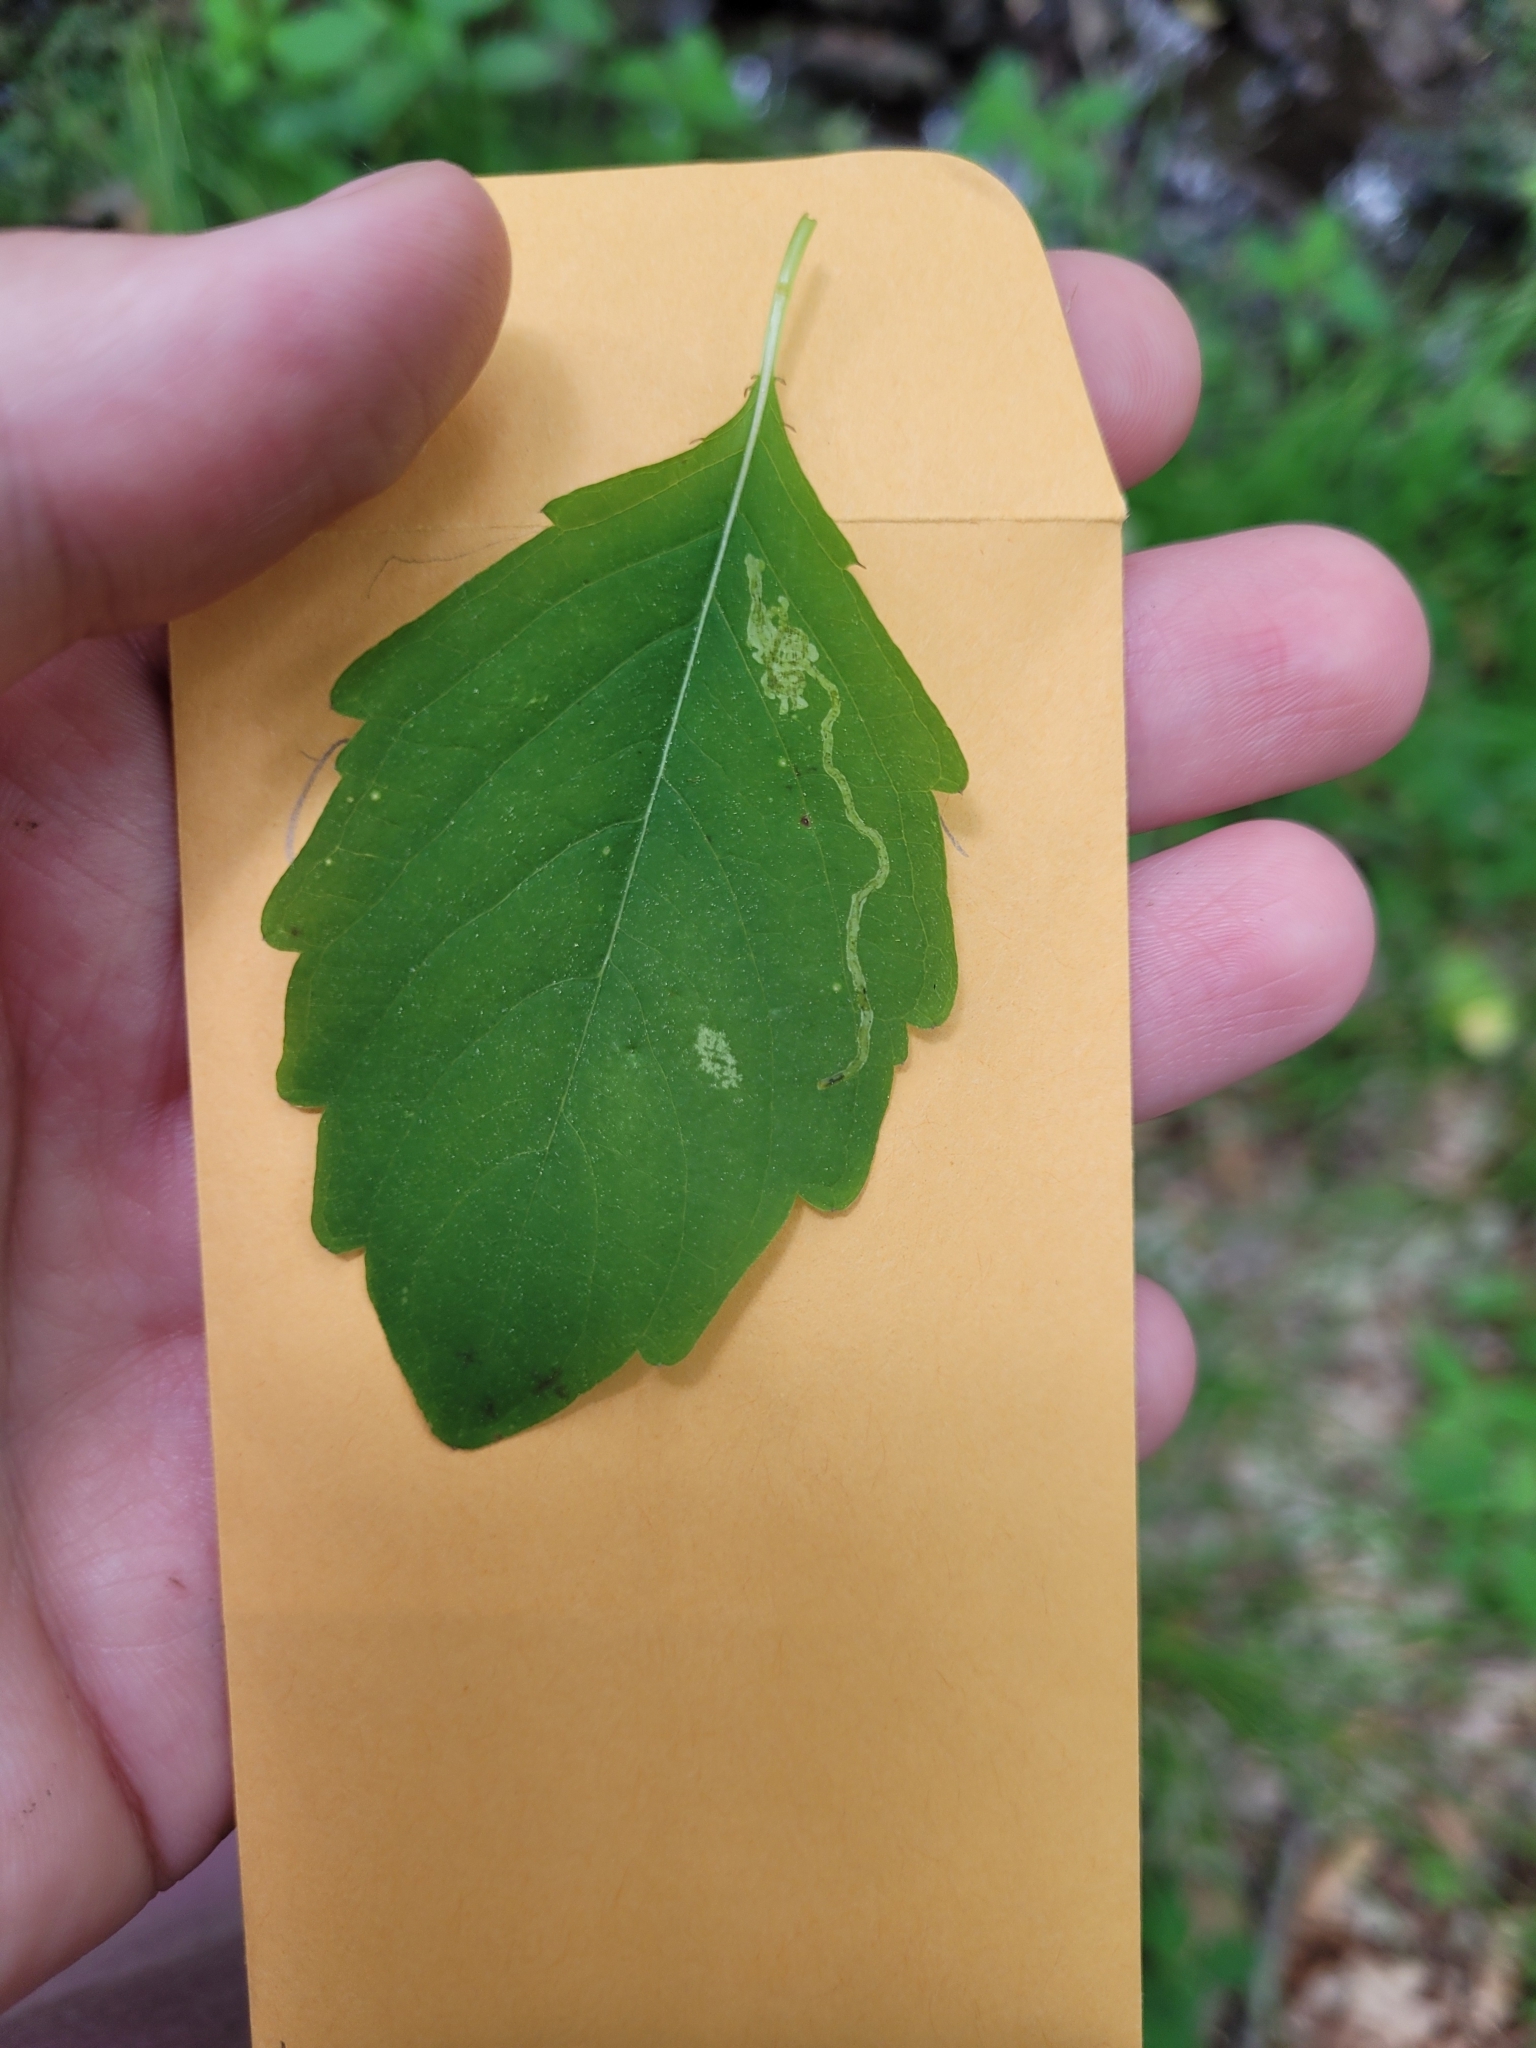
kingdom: Animalia
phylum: Arthropoda
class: Insecta
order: Diptera
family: Agromyzidae
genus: Phytoliriomyza
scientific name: Phytoliriomyza melampyga
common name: Jewelweed leaf-miner fly
